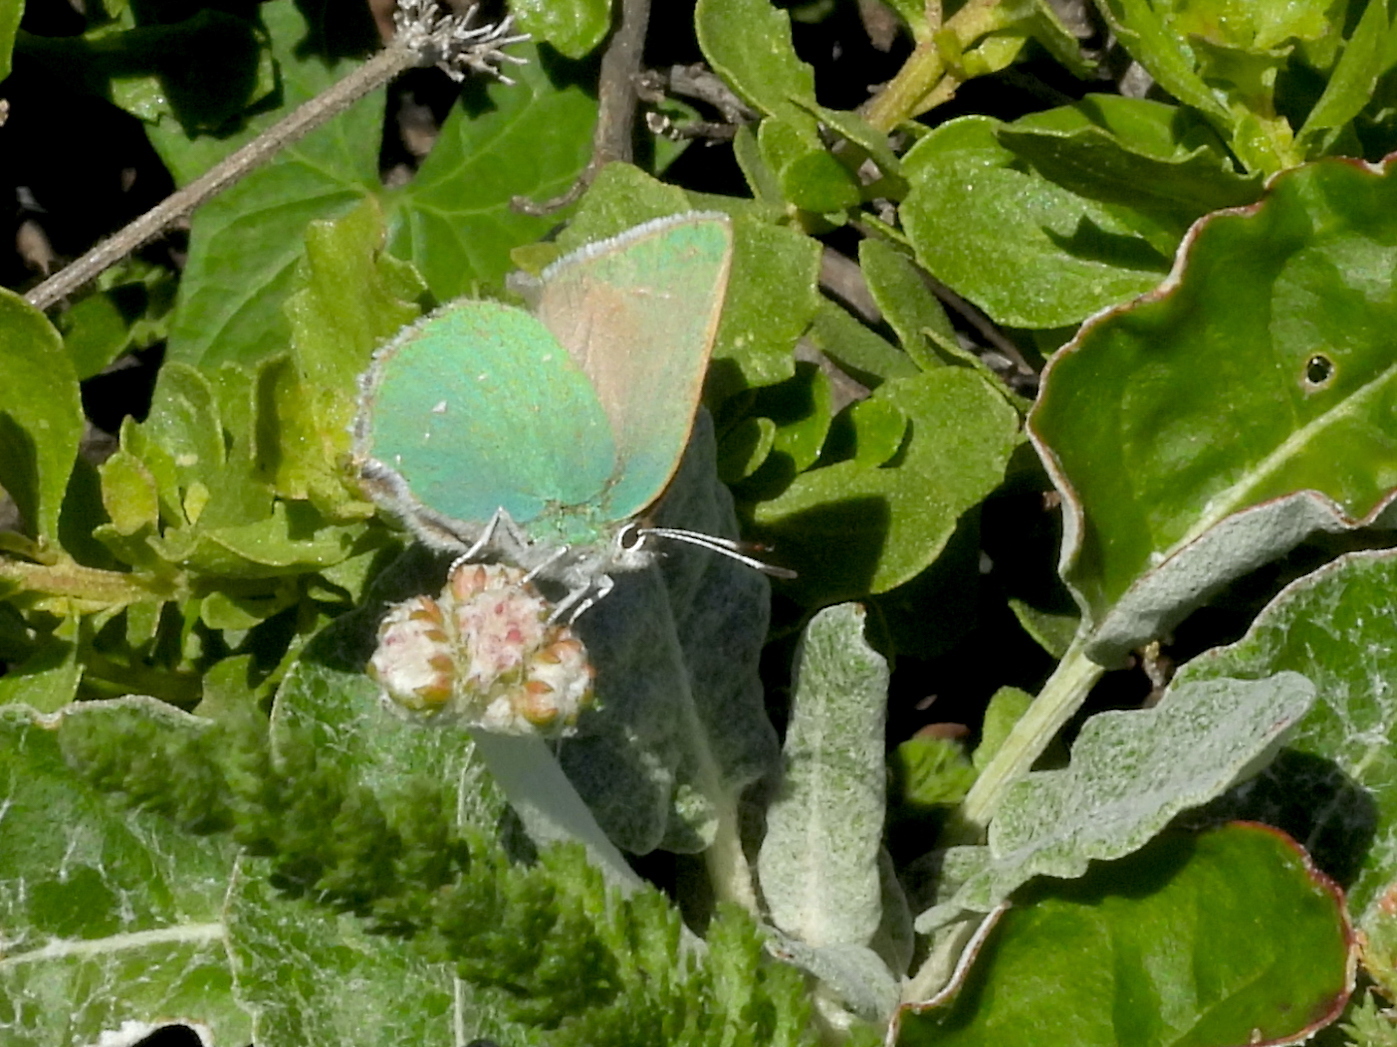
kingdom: Animalia
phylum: Arthropoda
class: Insecta
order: Lepidoptera
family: Lycaenidae
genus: Callophrys
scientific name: Callophrys viridis
